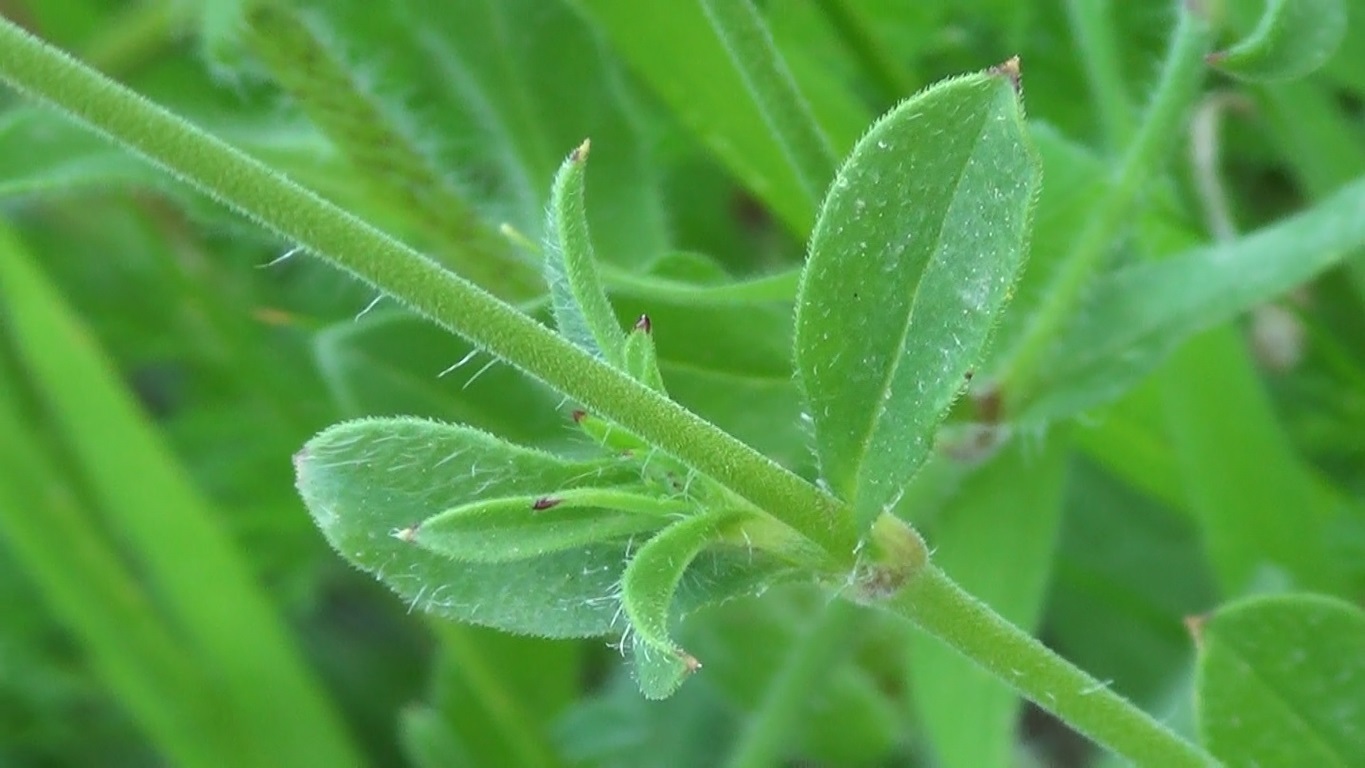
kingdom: Plantae
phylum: Tracheophyta
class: Magnoliopsida
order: Caryophyllales
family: Caryophyllaceae
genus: Silene
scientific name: Silene gallica
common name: Small-flowered catchfly
